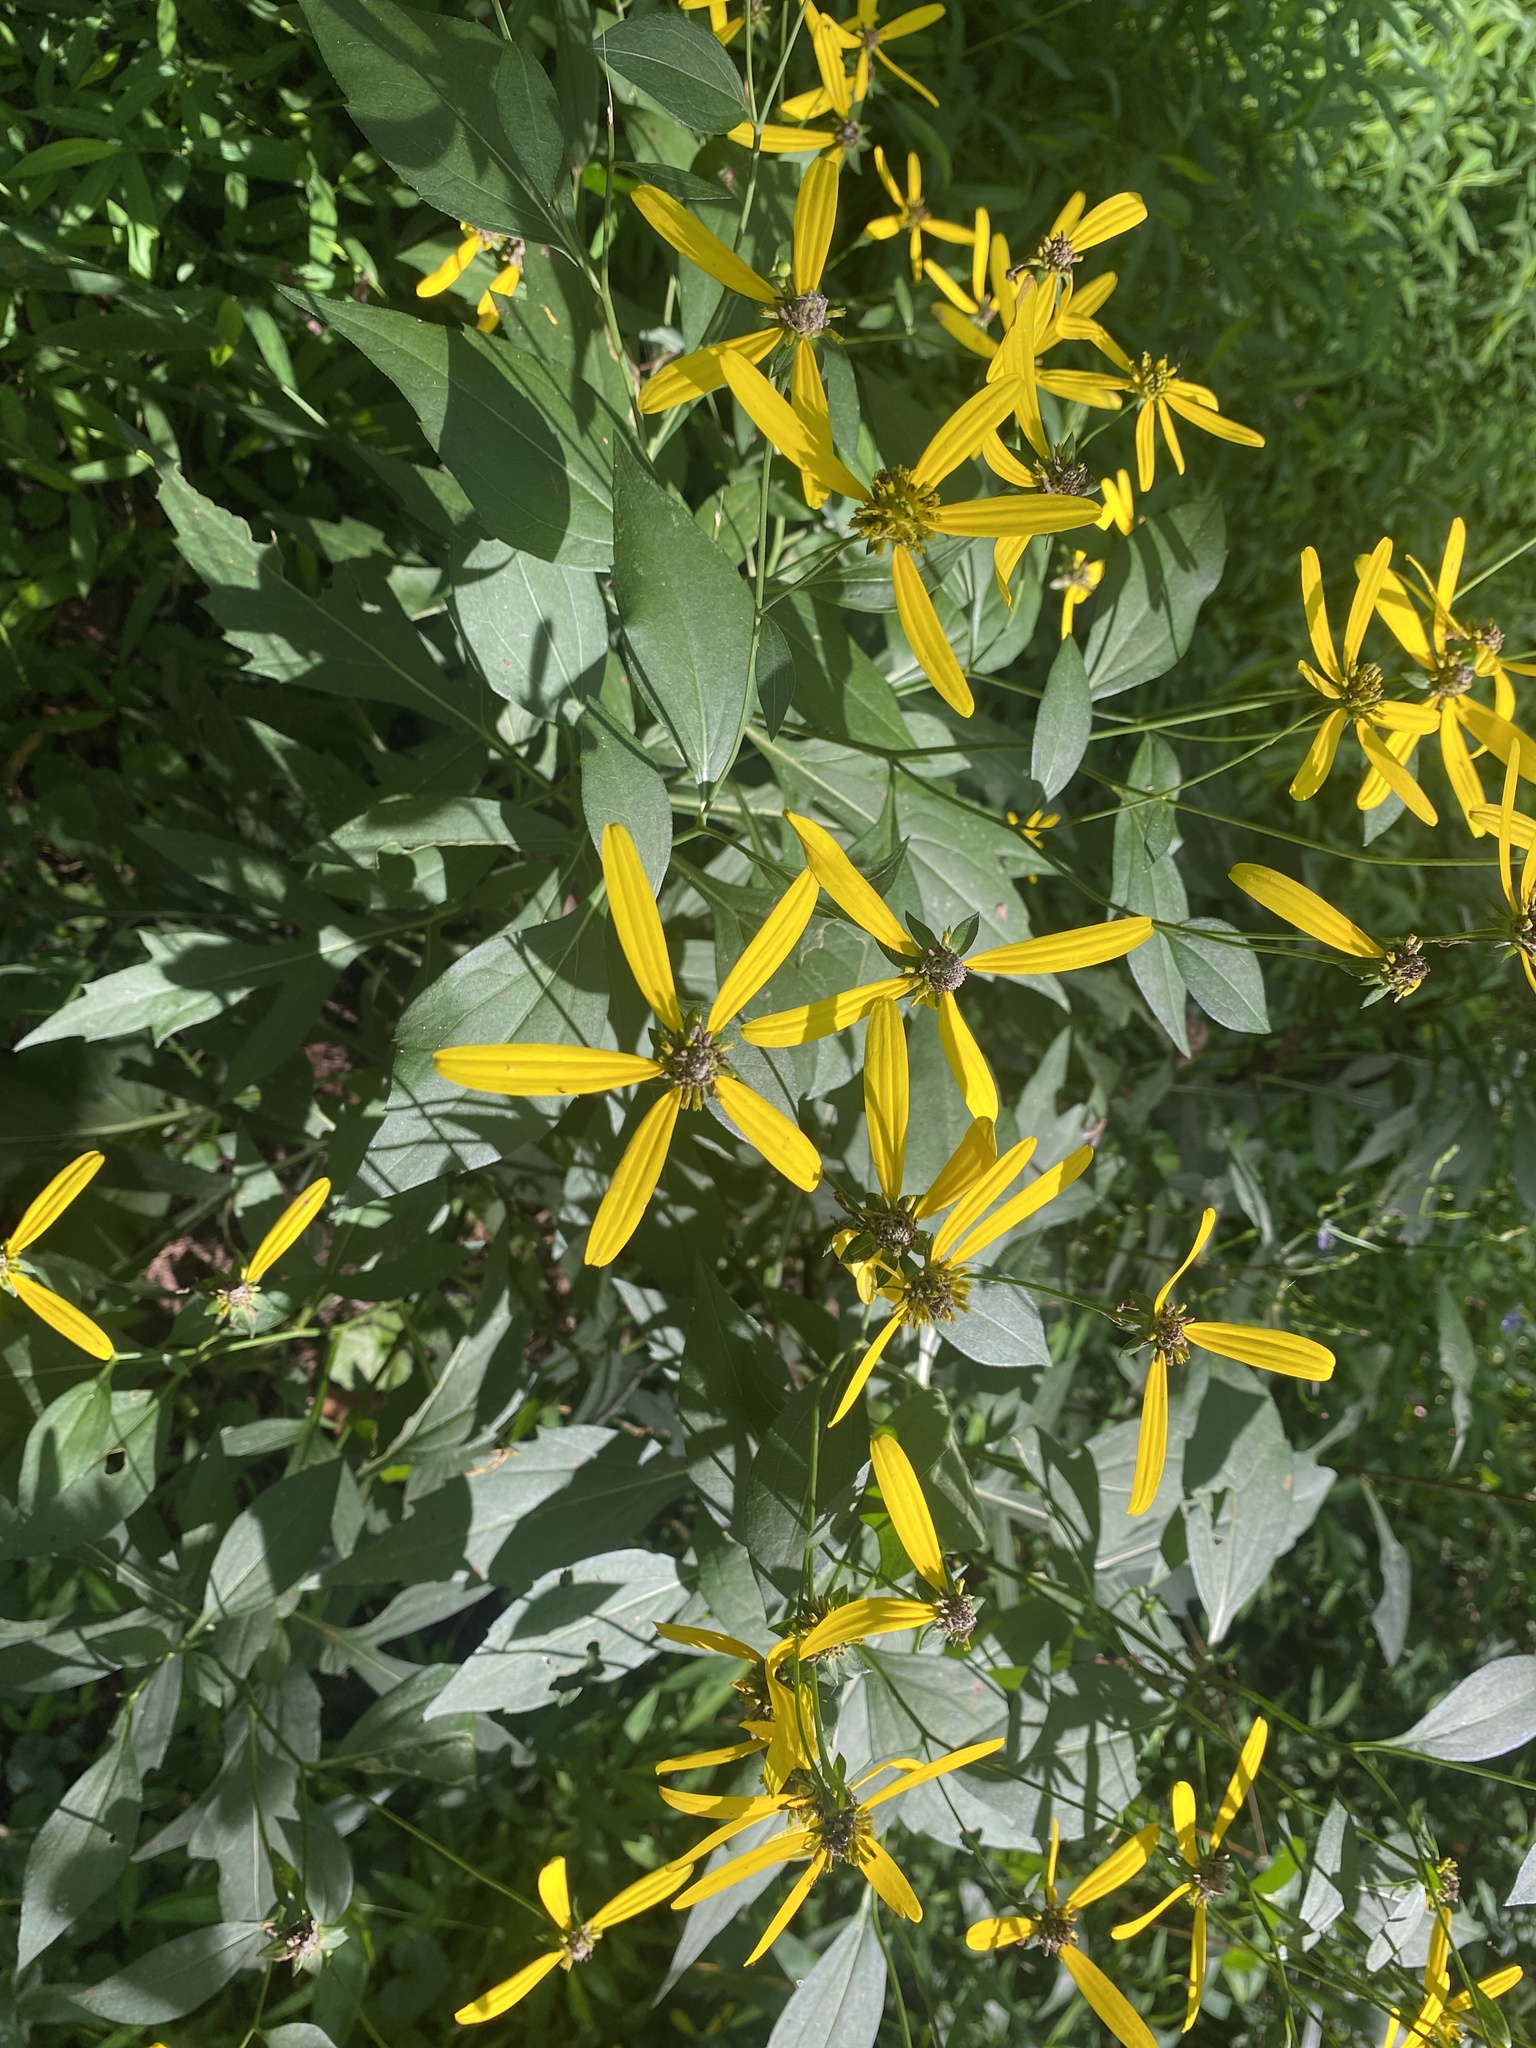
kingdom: Plantae
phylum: Tracheophyta
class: Magnoliopsida
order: Asterales
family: Asteraceae
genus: Rudbeckia
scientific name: Rudbeckia laciniata
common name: Coneflower
